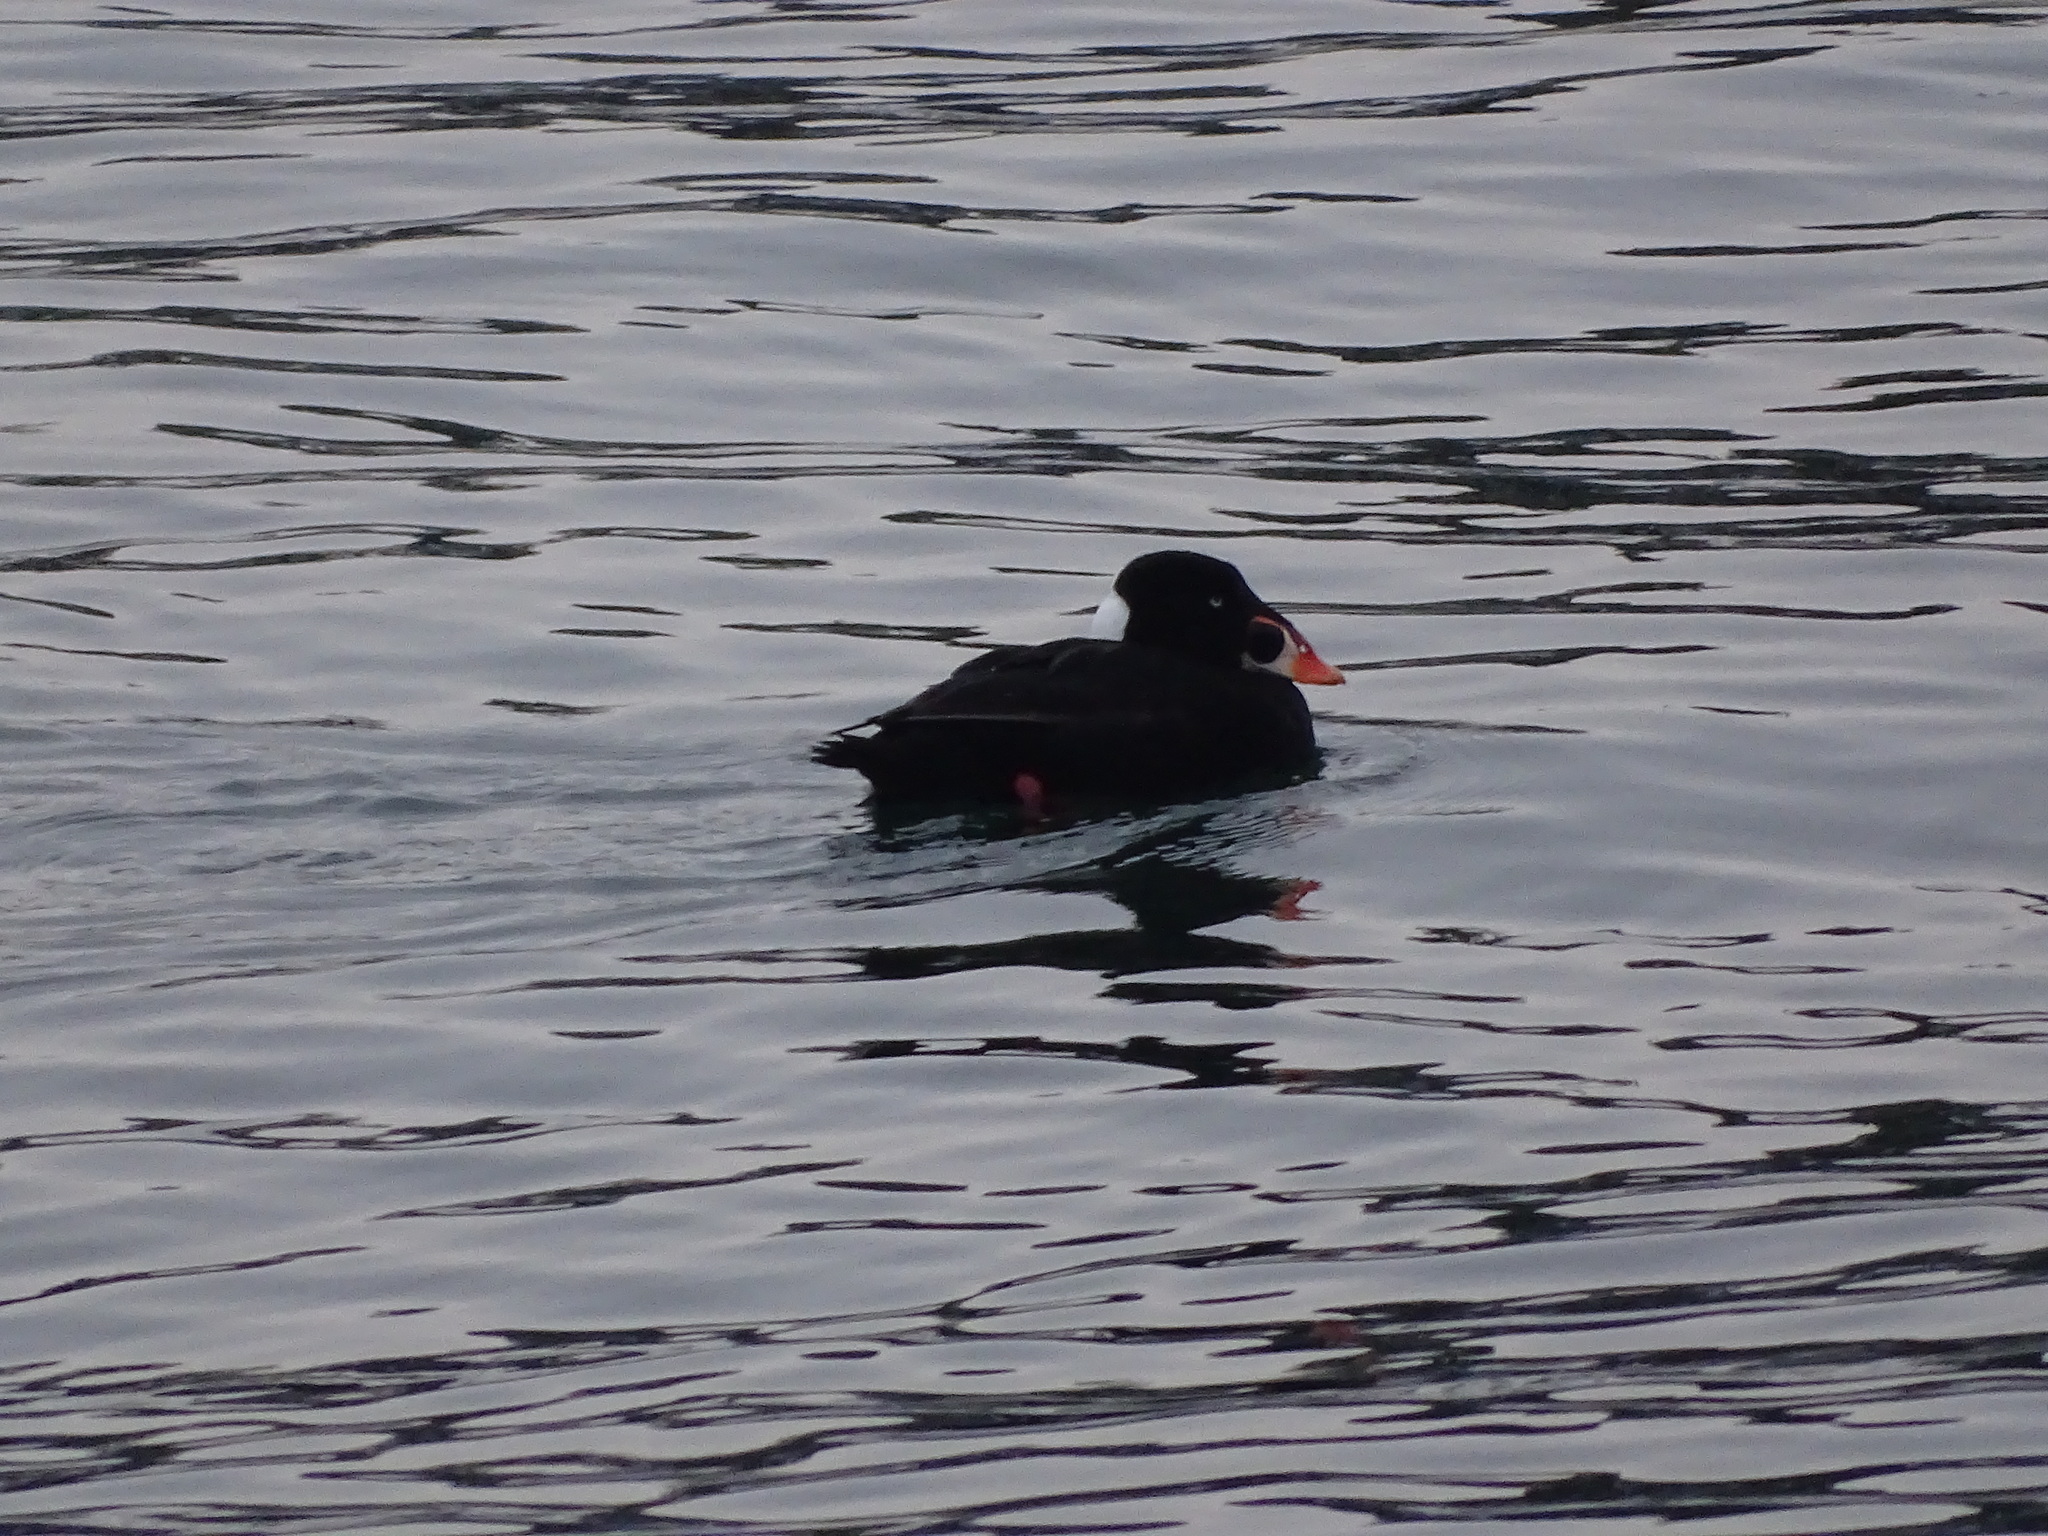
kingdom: Animalia
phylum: Chordata
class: Aves
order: Anseriformes
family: Anatidae
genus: Melanitta
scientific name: Melanitta perspicillata
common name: Surf scoter
